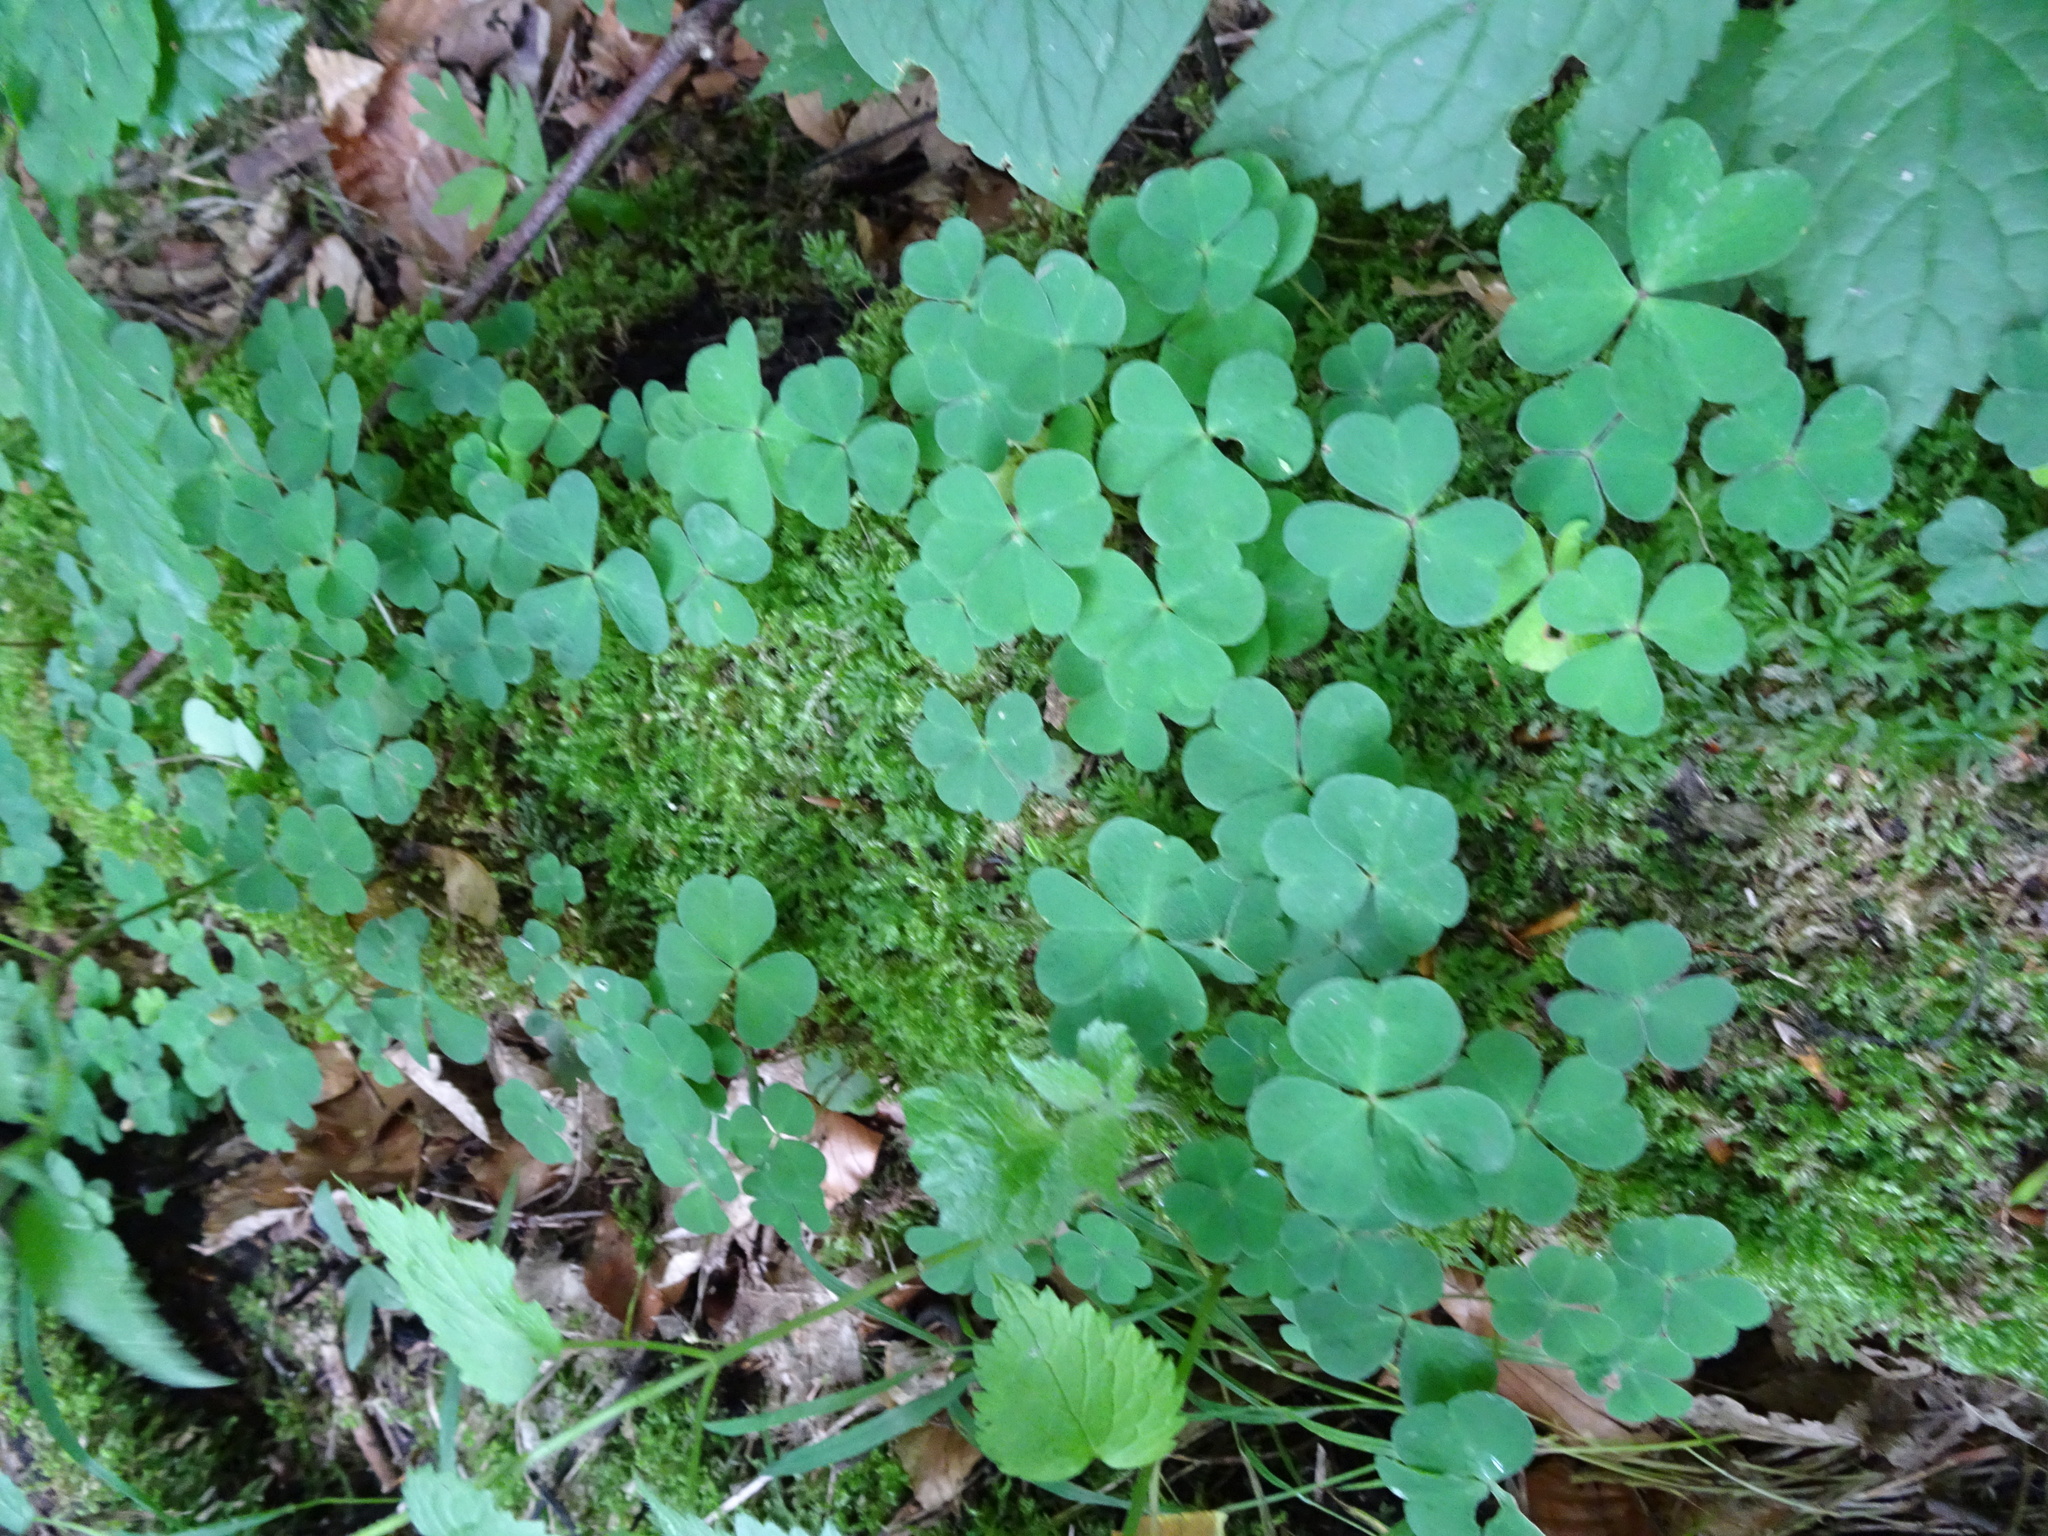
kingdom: Plantae
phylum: Tracheophyta
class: Magnoliopsida
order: Oxalidales
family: Oxalidaceae
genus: Oxalis
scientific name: Oxalis acetosella
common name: Wood-sorrel
